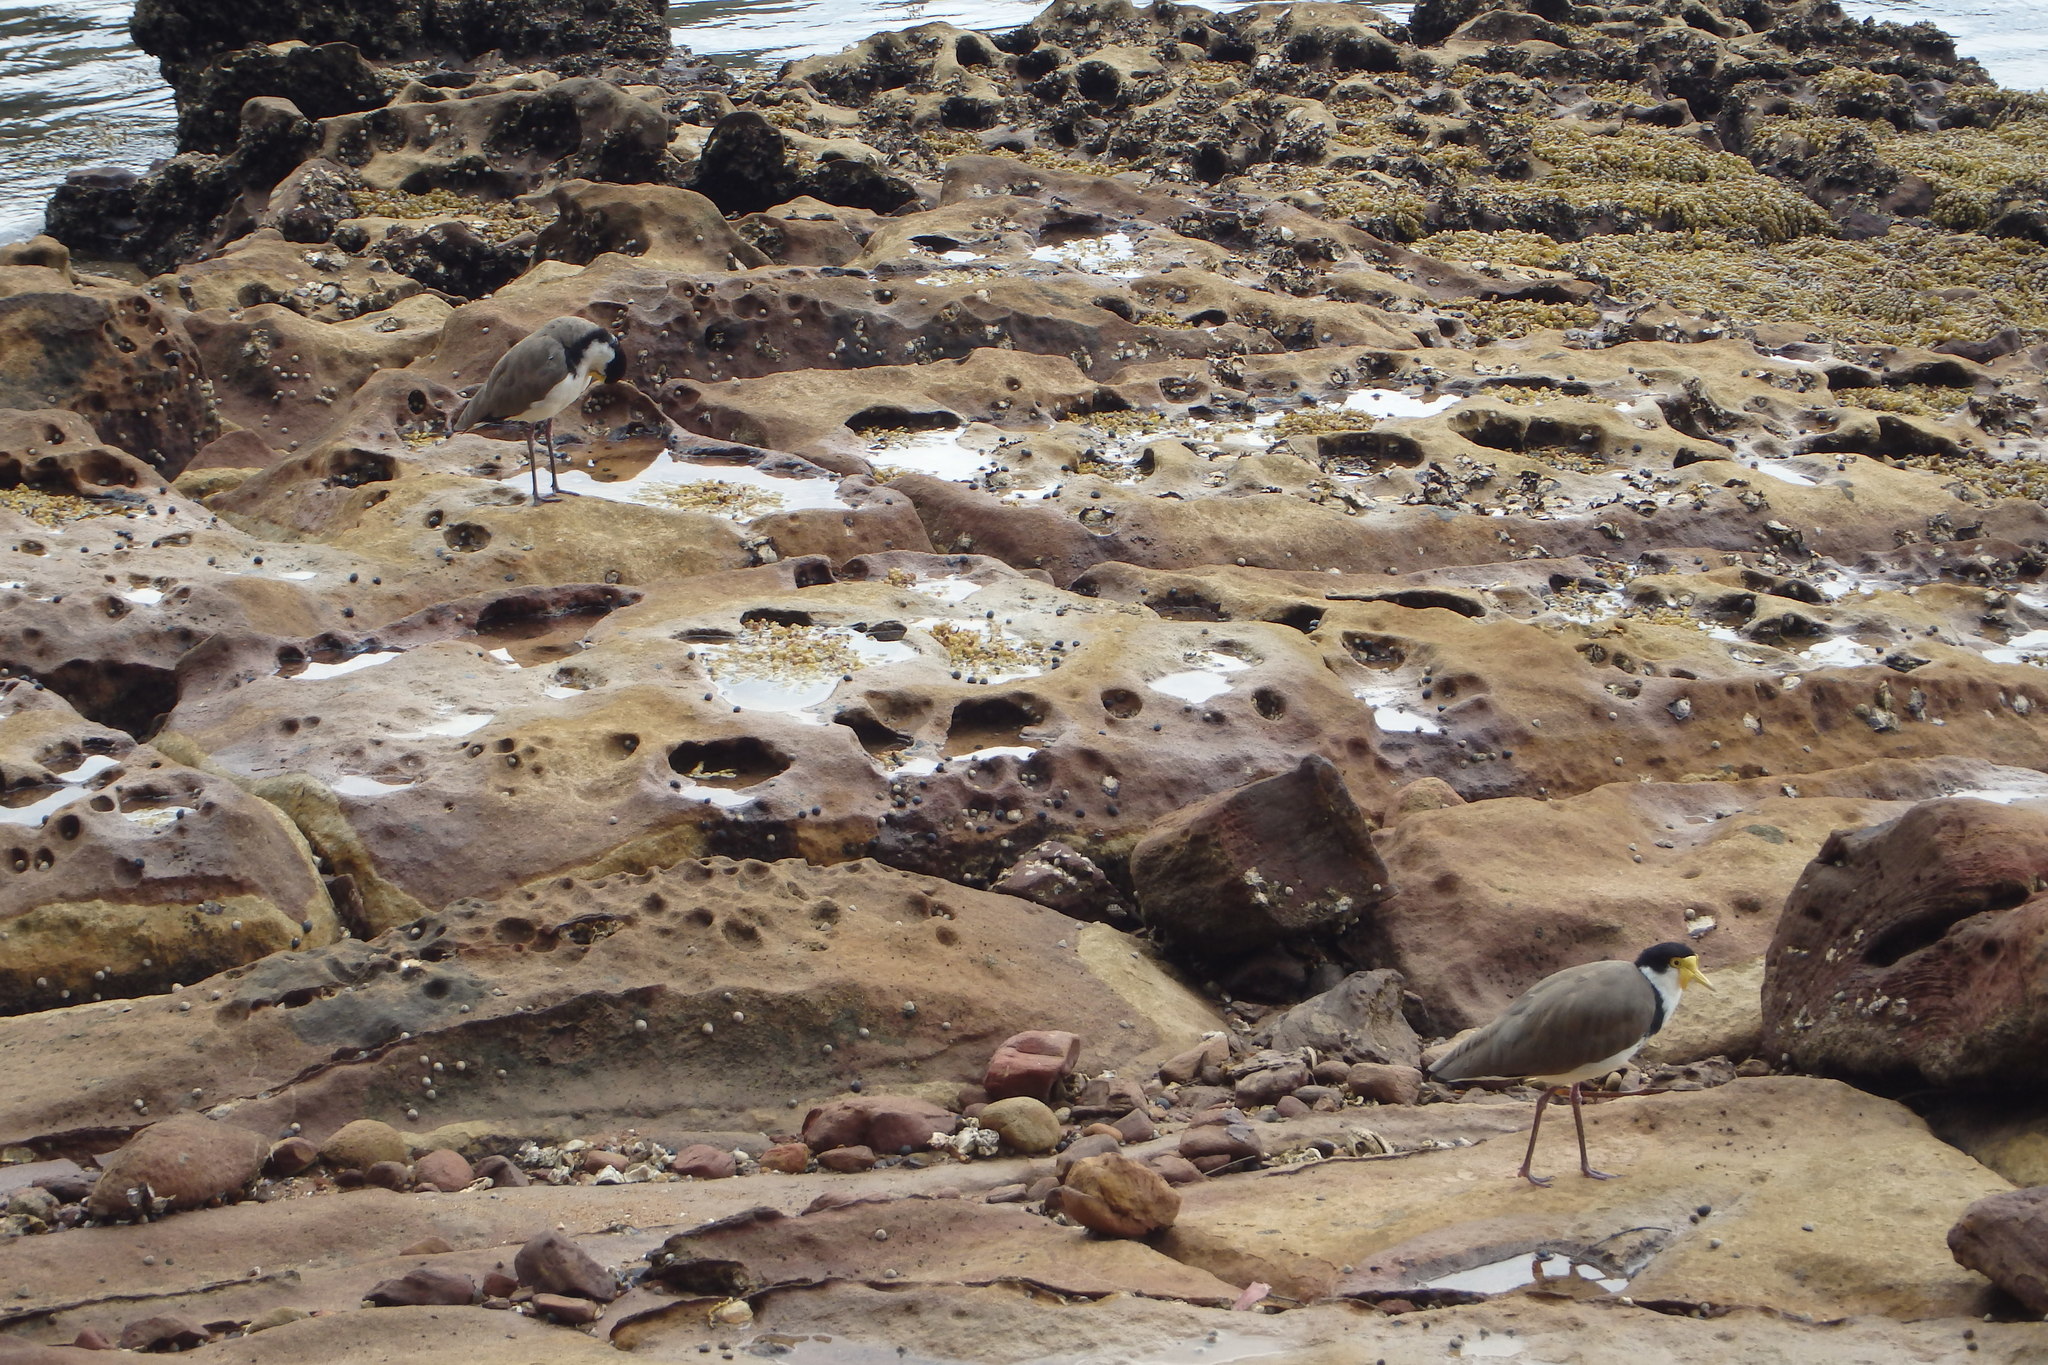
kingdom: Animalia
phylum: Chordata
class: Aves
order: Charadriiformes
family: Charadriidae
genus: Vanellus
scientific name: Vanellus miles
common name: Masked lapwing
